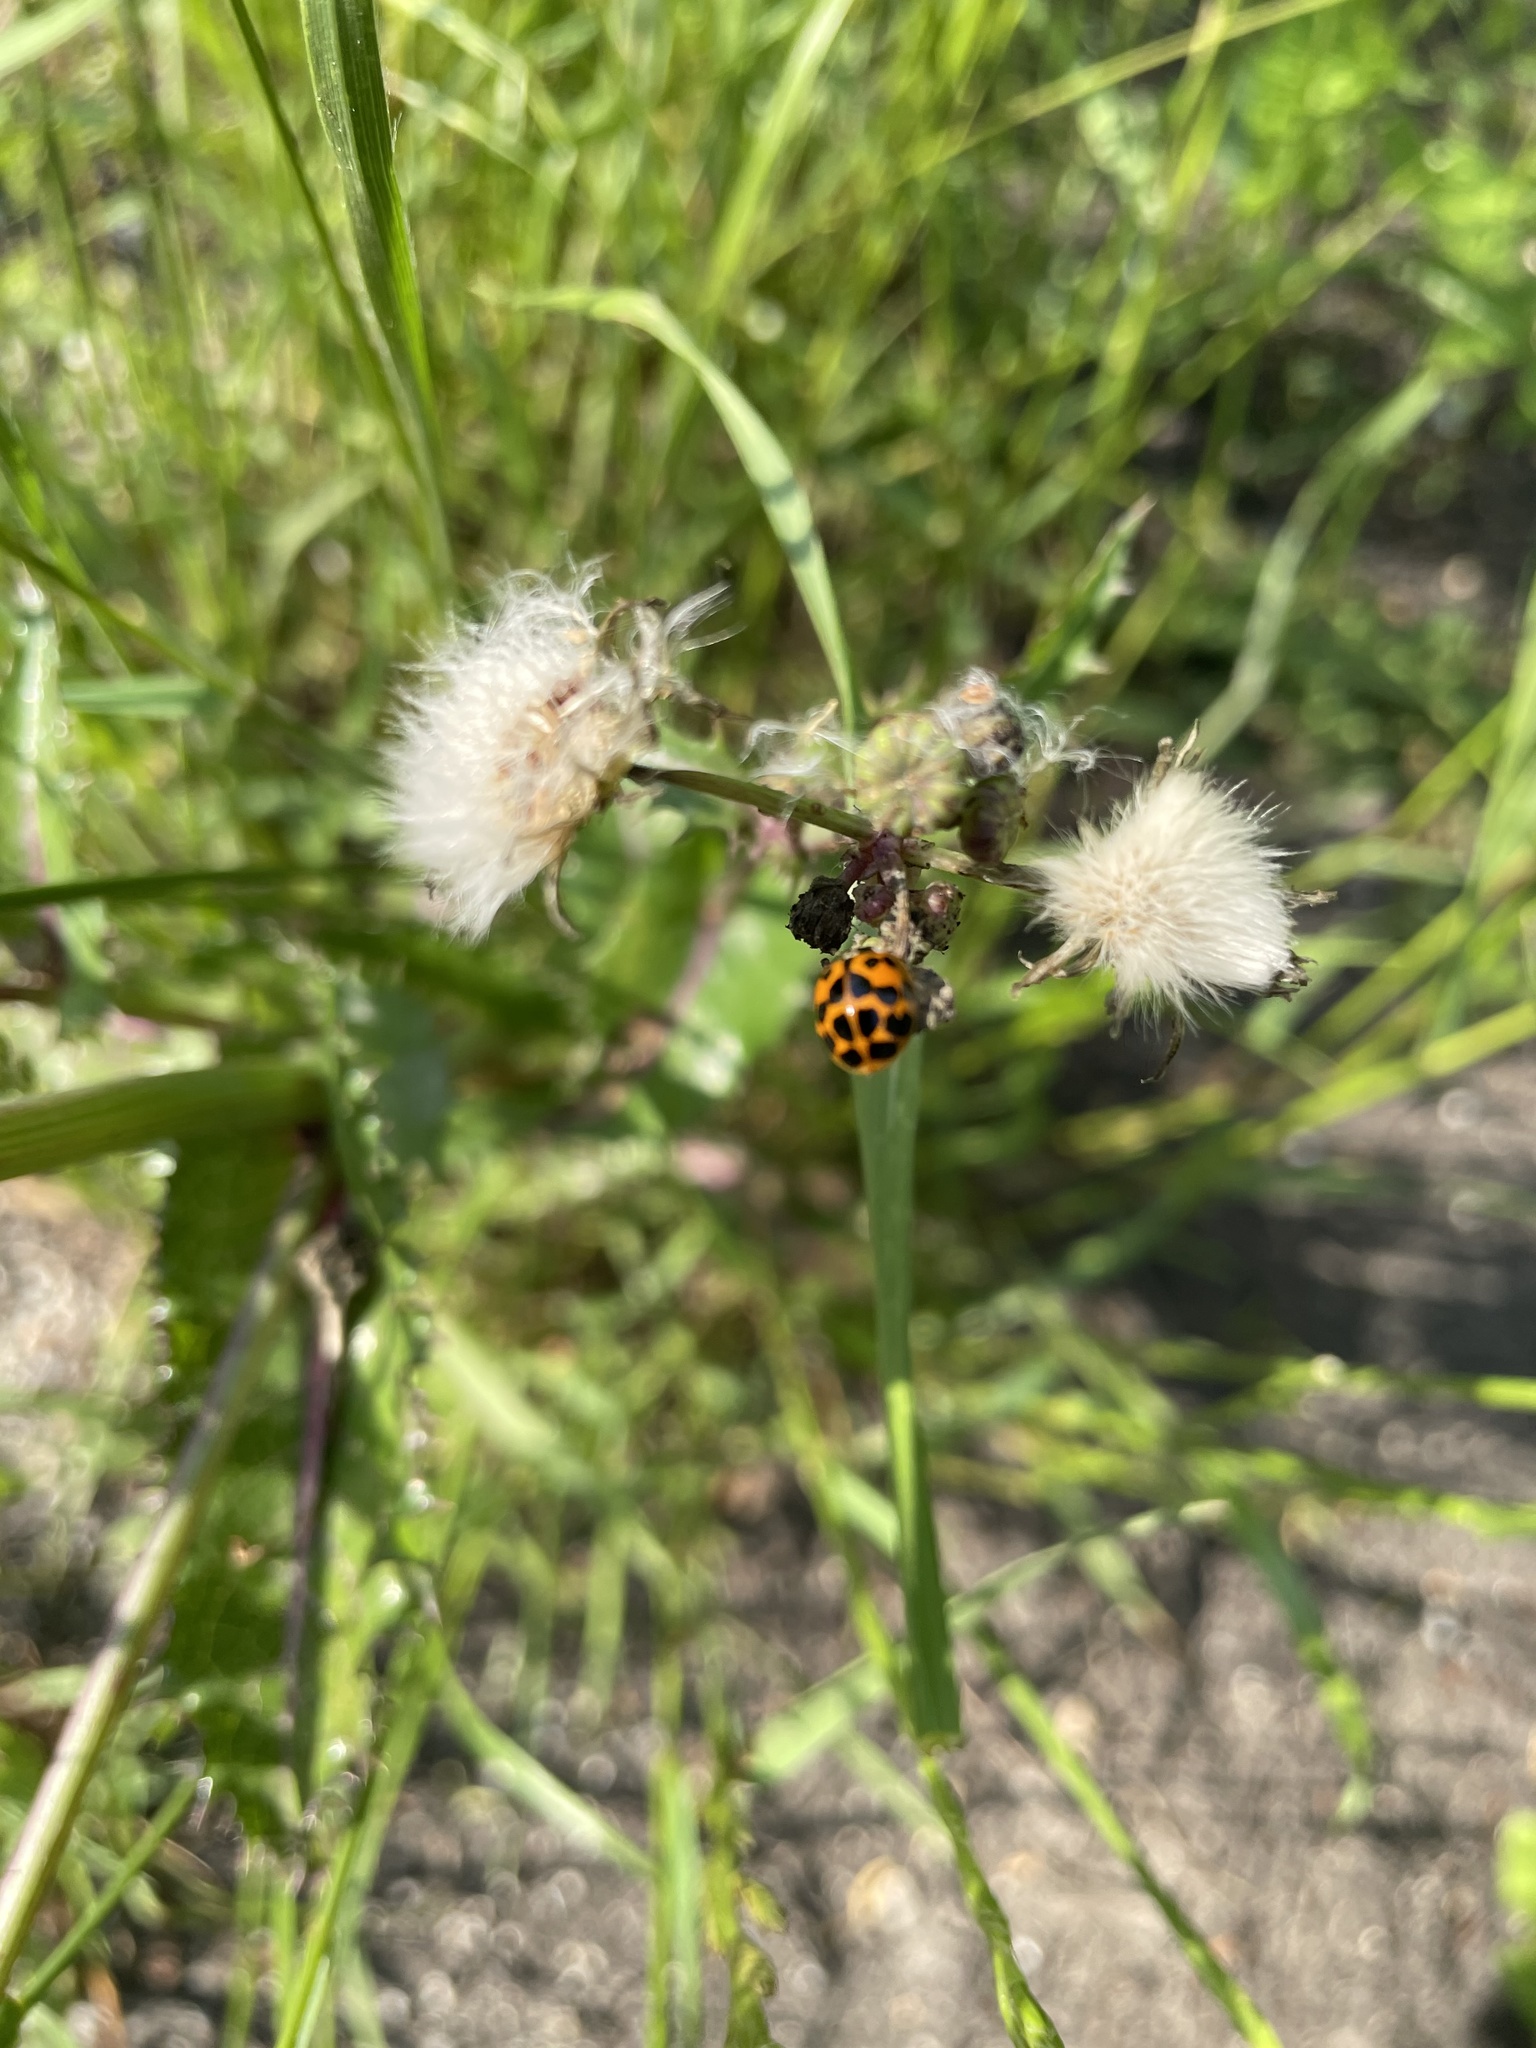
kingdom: Animalia
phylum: Arthropoda
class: Insecta
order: Coleoptera
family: Coccinellidae
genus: Harmonia
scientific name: Harmonia axyridis
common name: Harlequin ladybird
